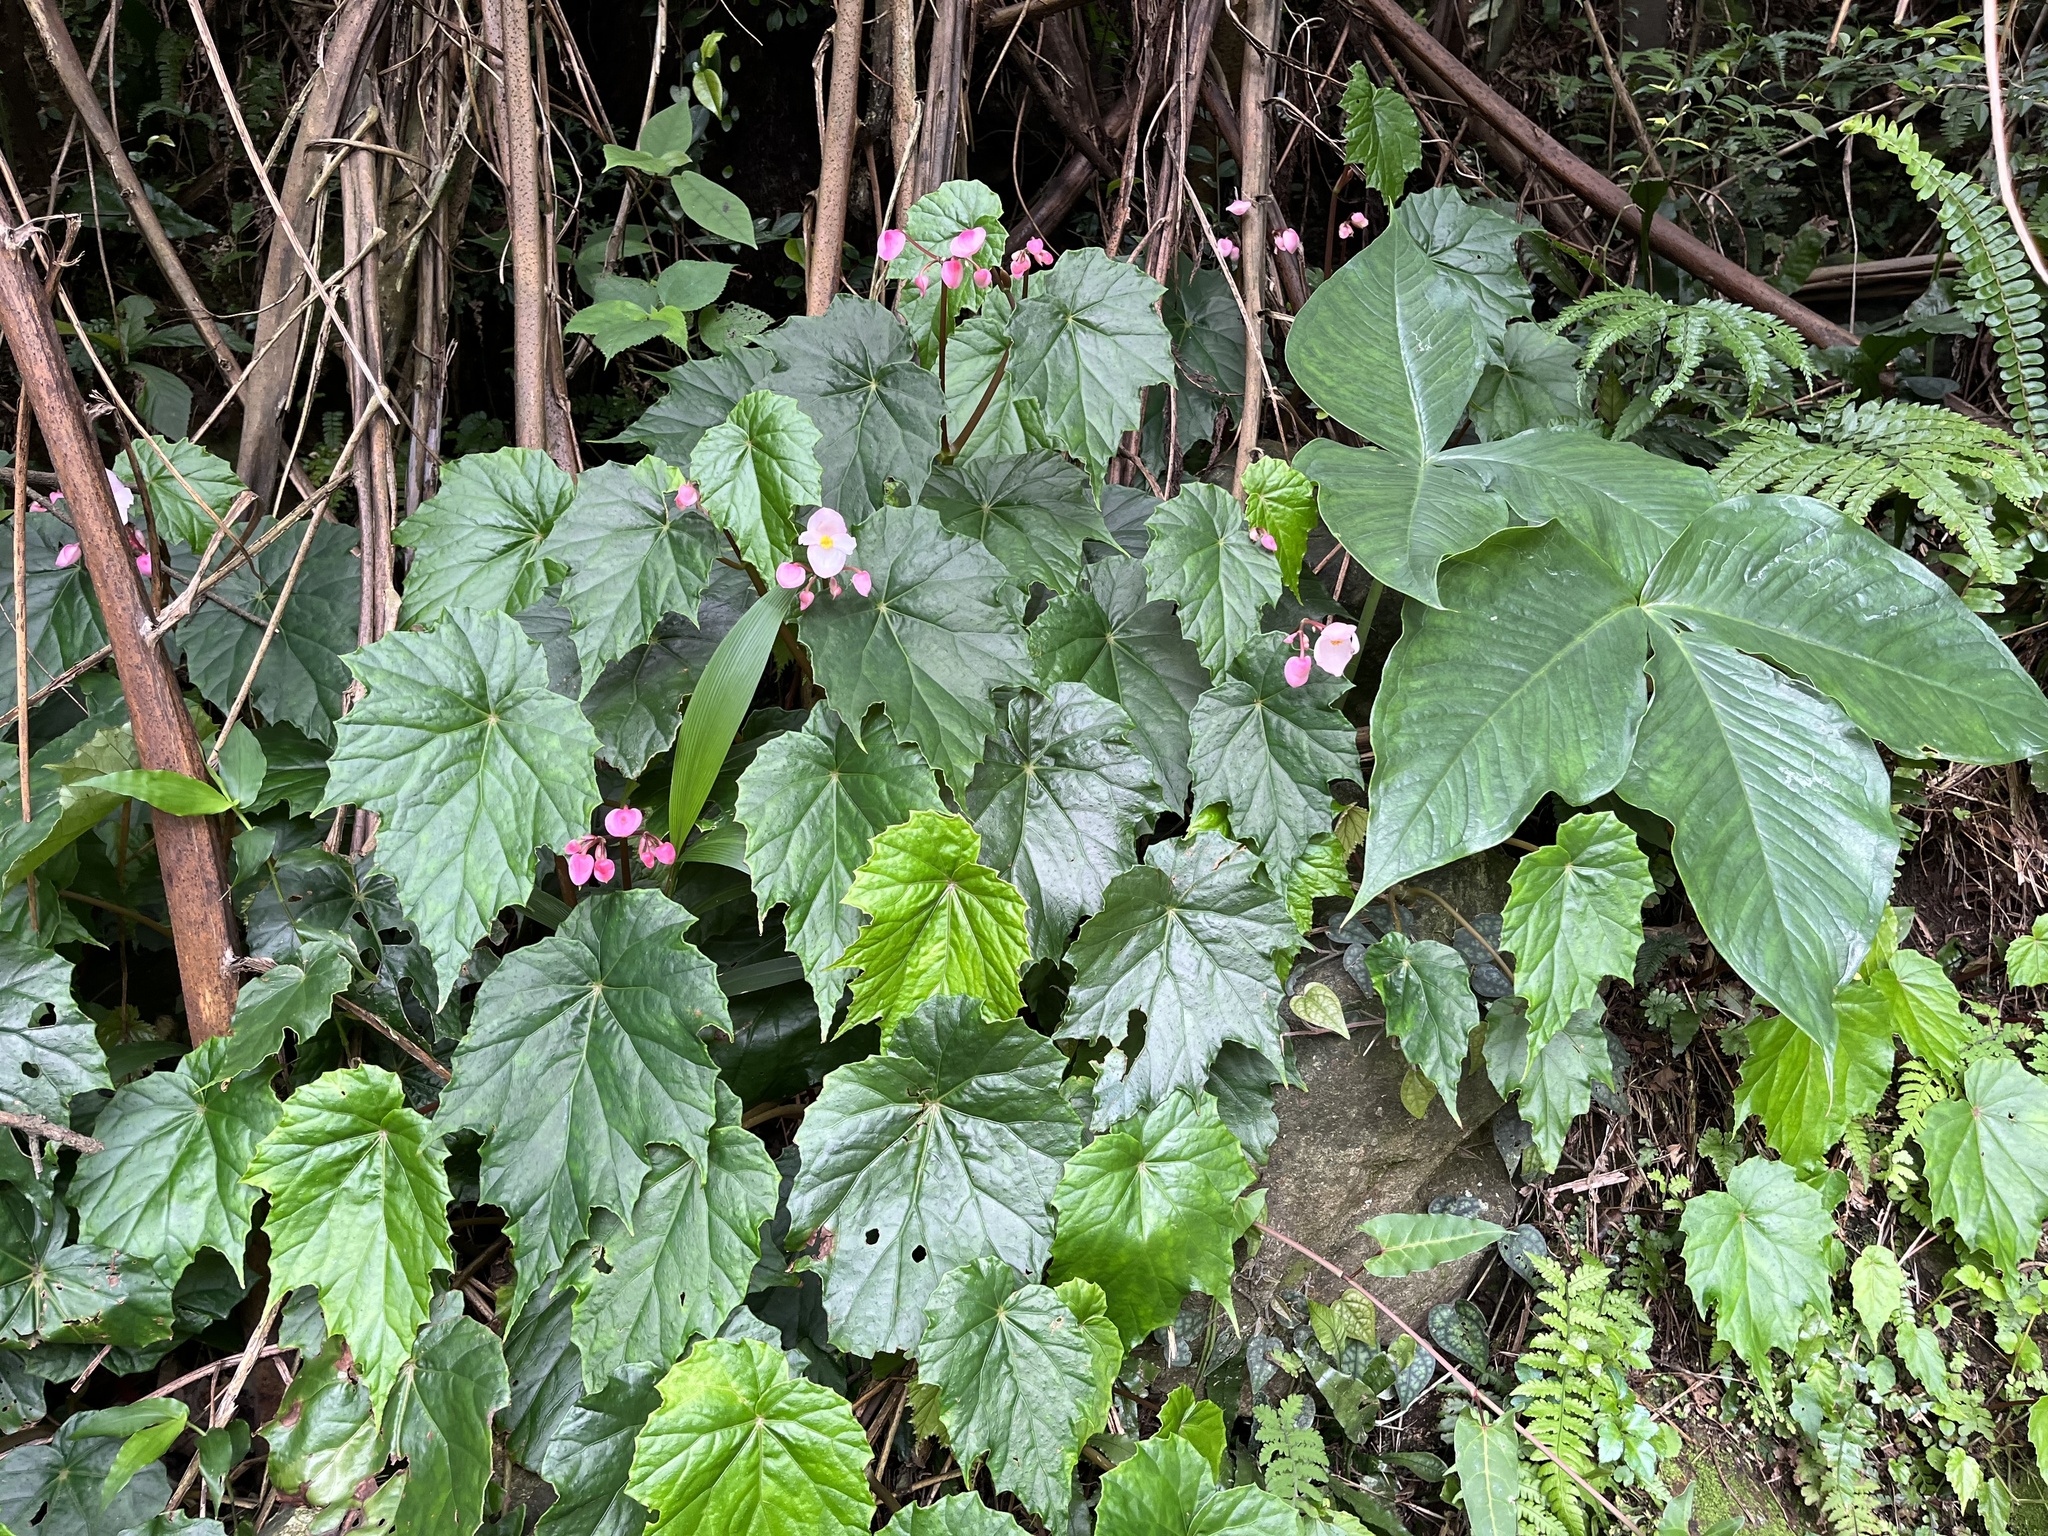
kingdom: Plantae
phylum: Tracheophyta
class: Magnoliopsida
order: Cucurbitales
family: Begoniaceae
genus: Begonia
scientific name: Begonia formosana
